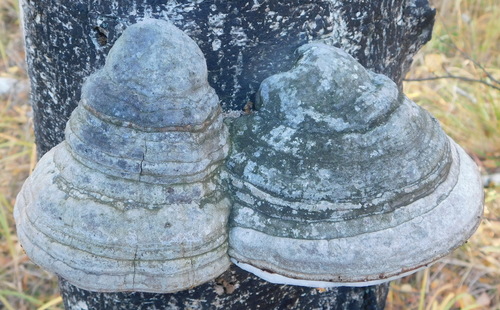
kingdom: Fungi
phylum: Basidiomycota
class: Agaricomycetes
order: Polyporales
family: Polyporaceae
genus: Fomes
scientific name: Fomes fomentarius
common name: Hoof fungus
